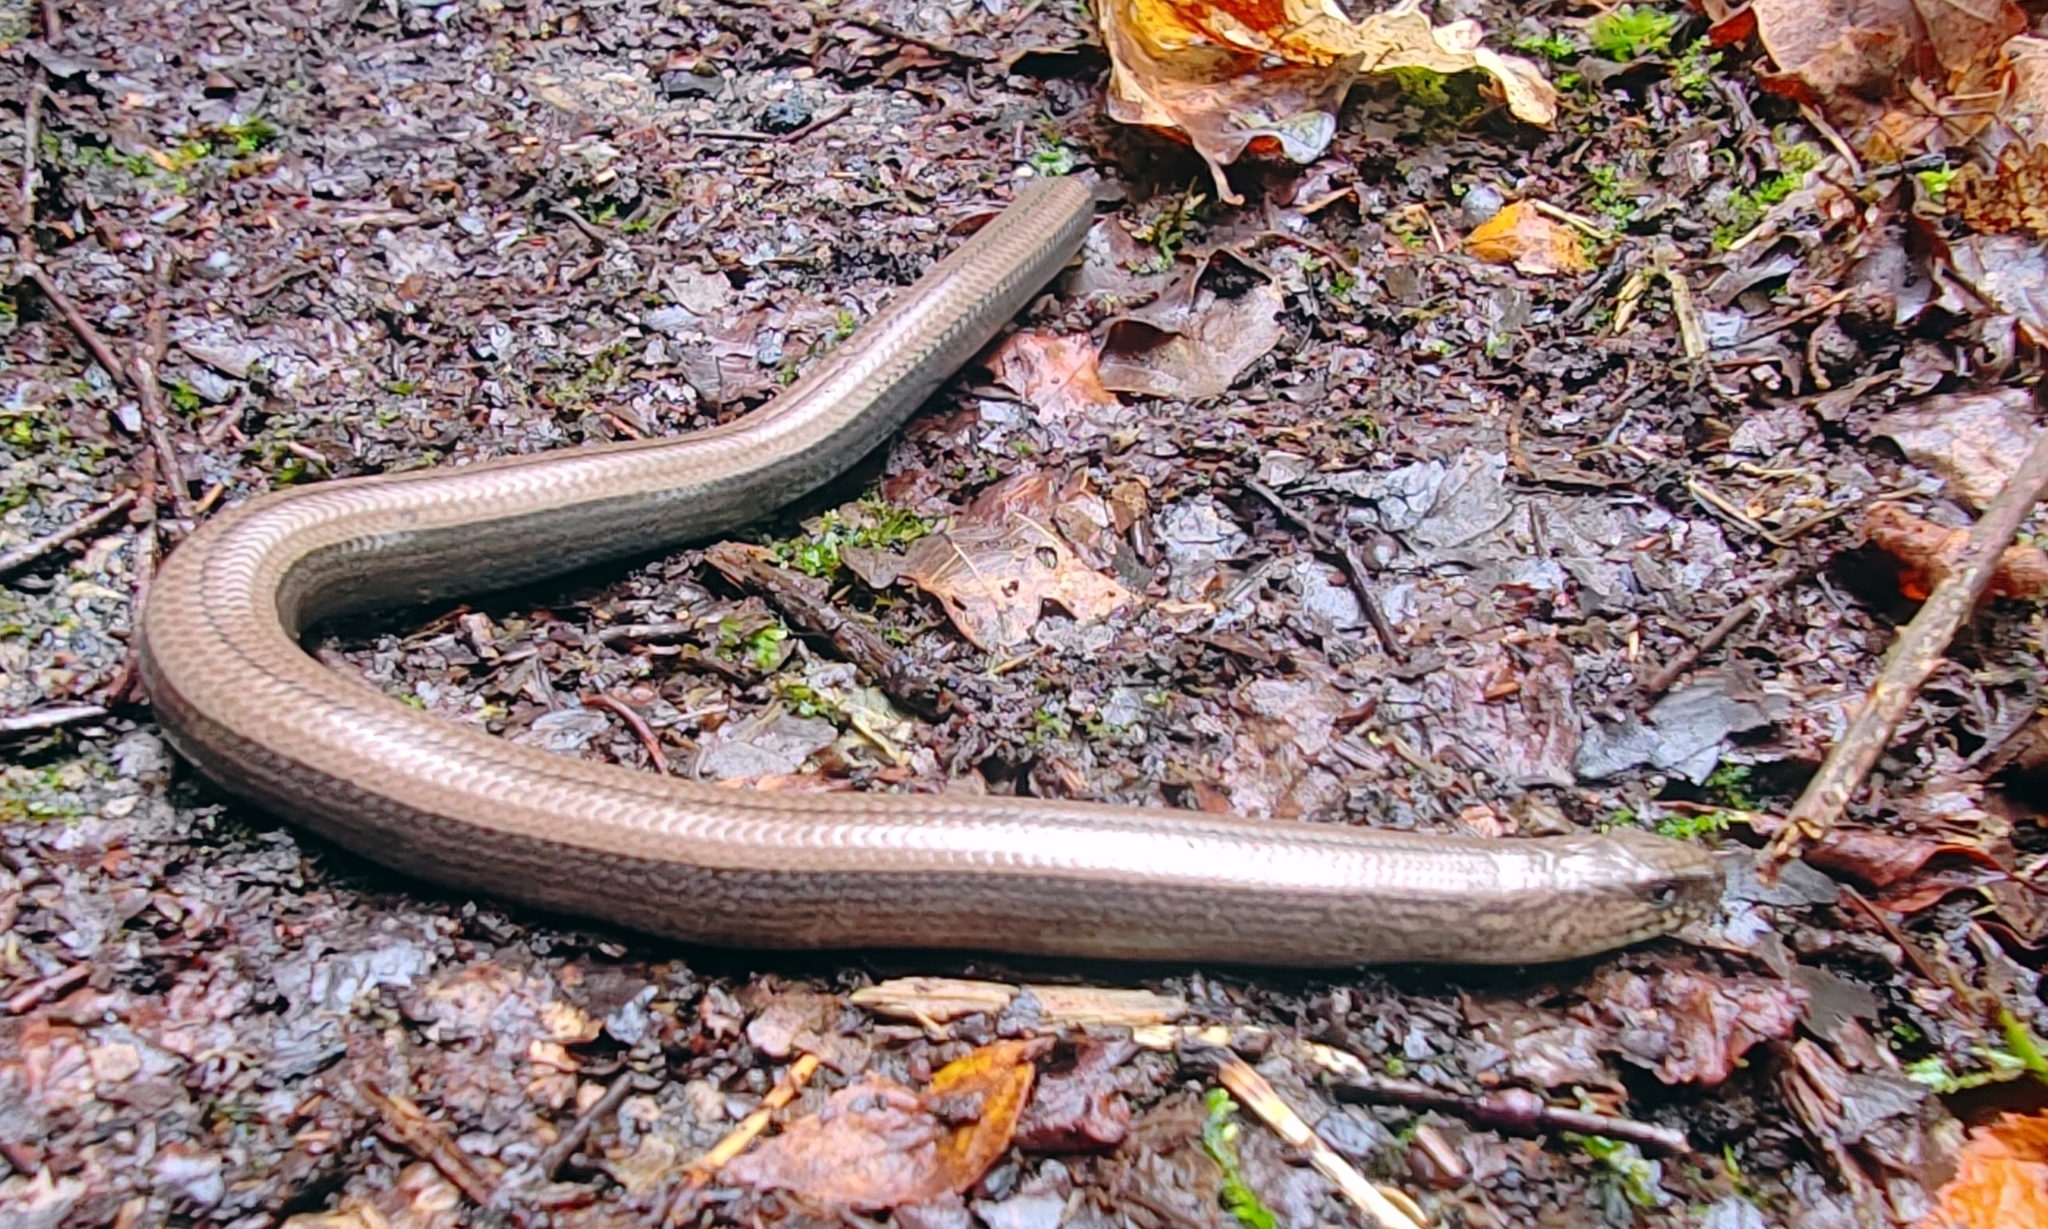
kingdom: Animalia
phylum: Chordata
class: Squamata
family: Anguidae
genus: Anguis
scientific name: Anguis fragilis
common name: Slow worm
